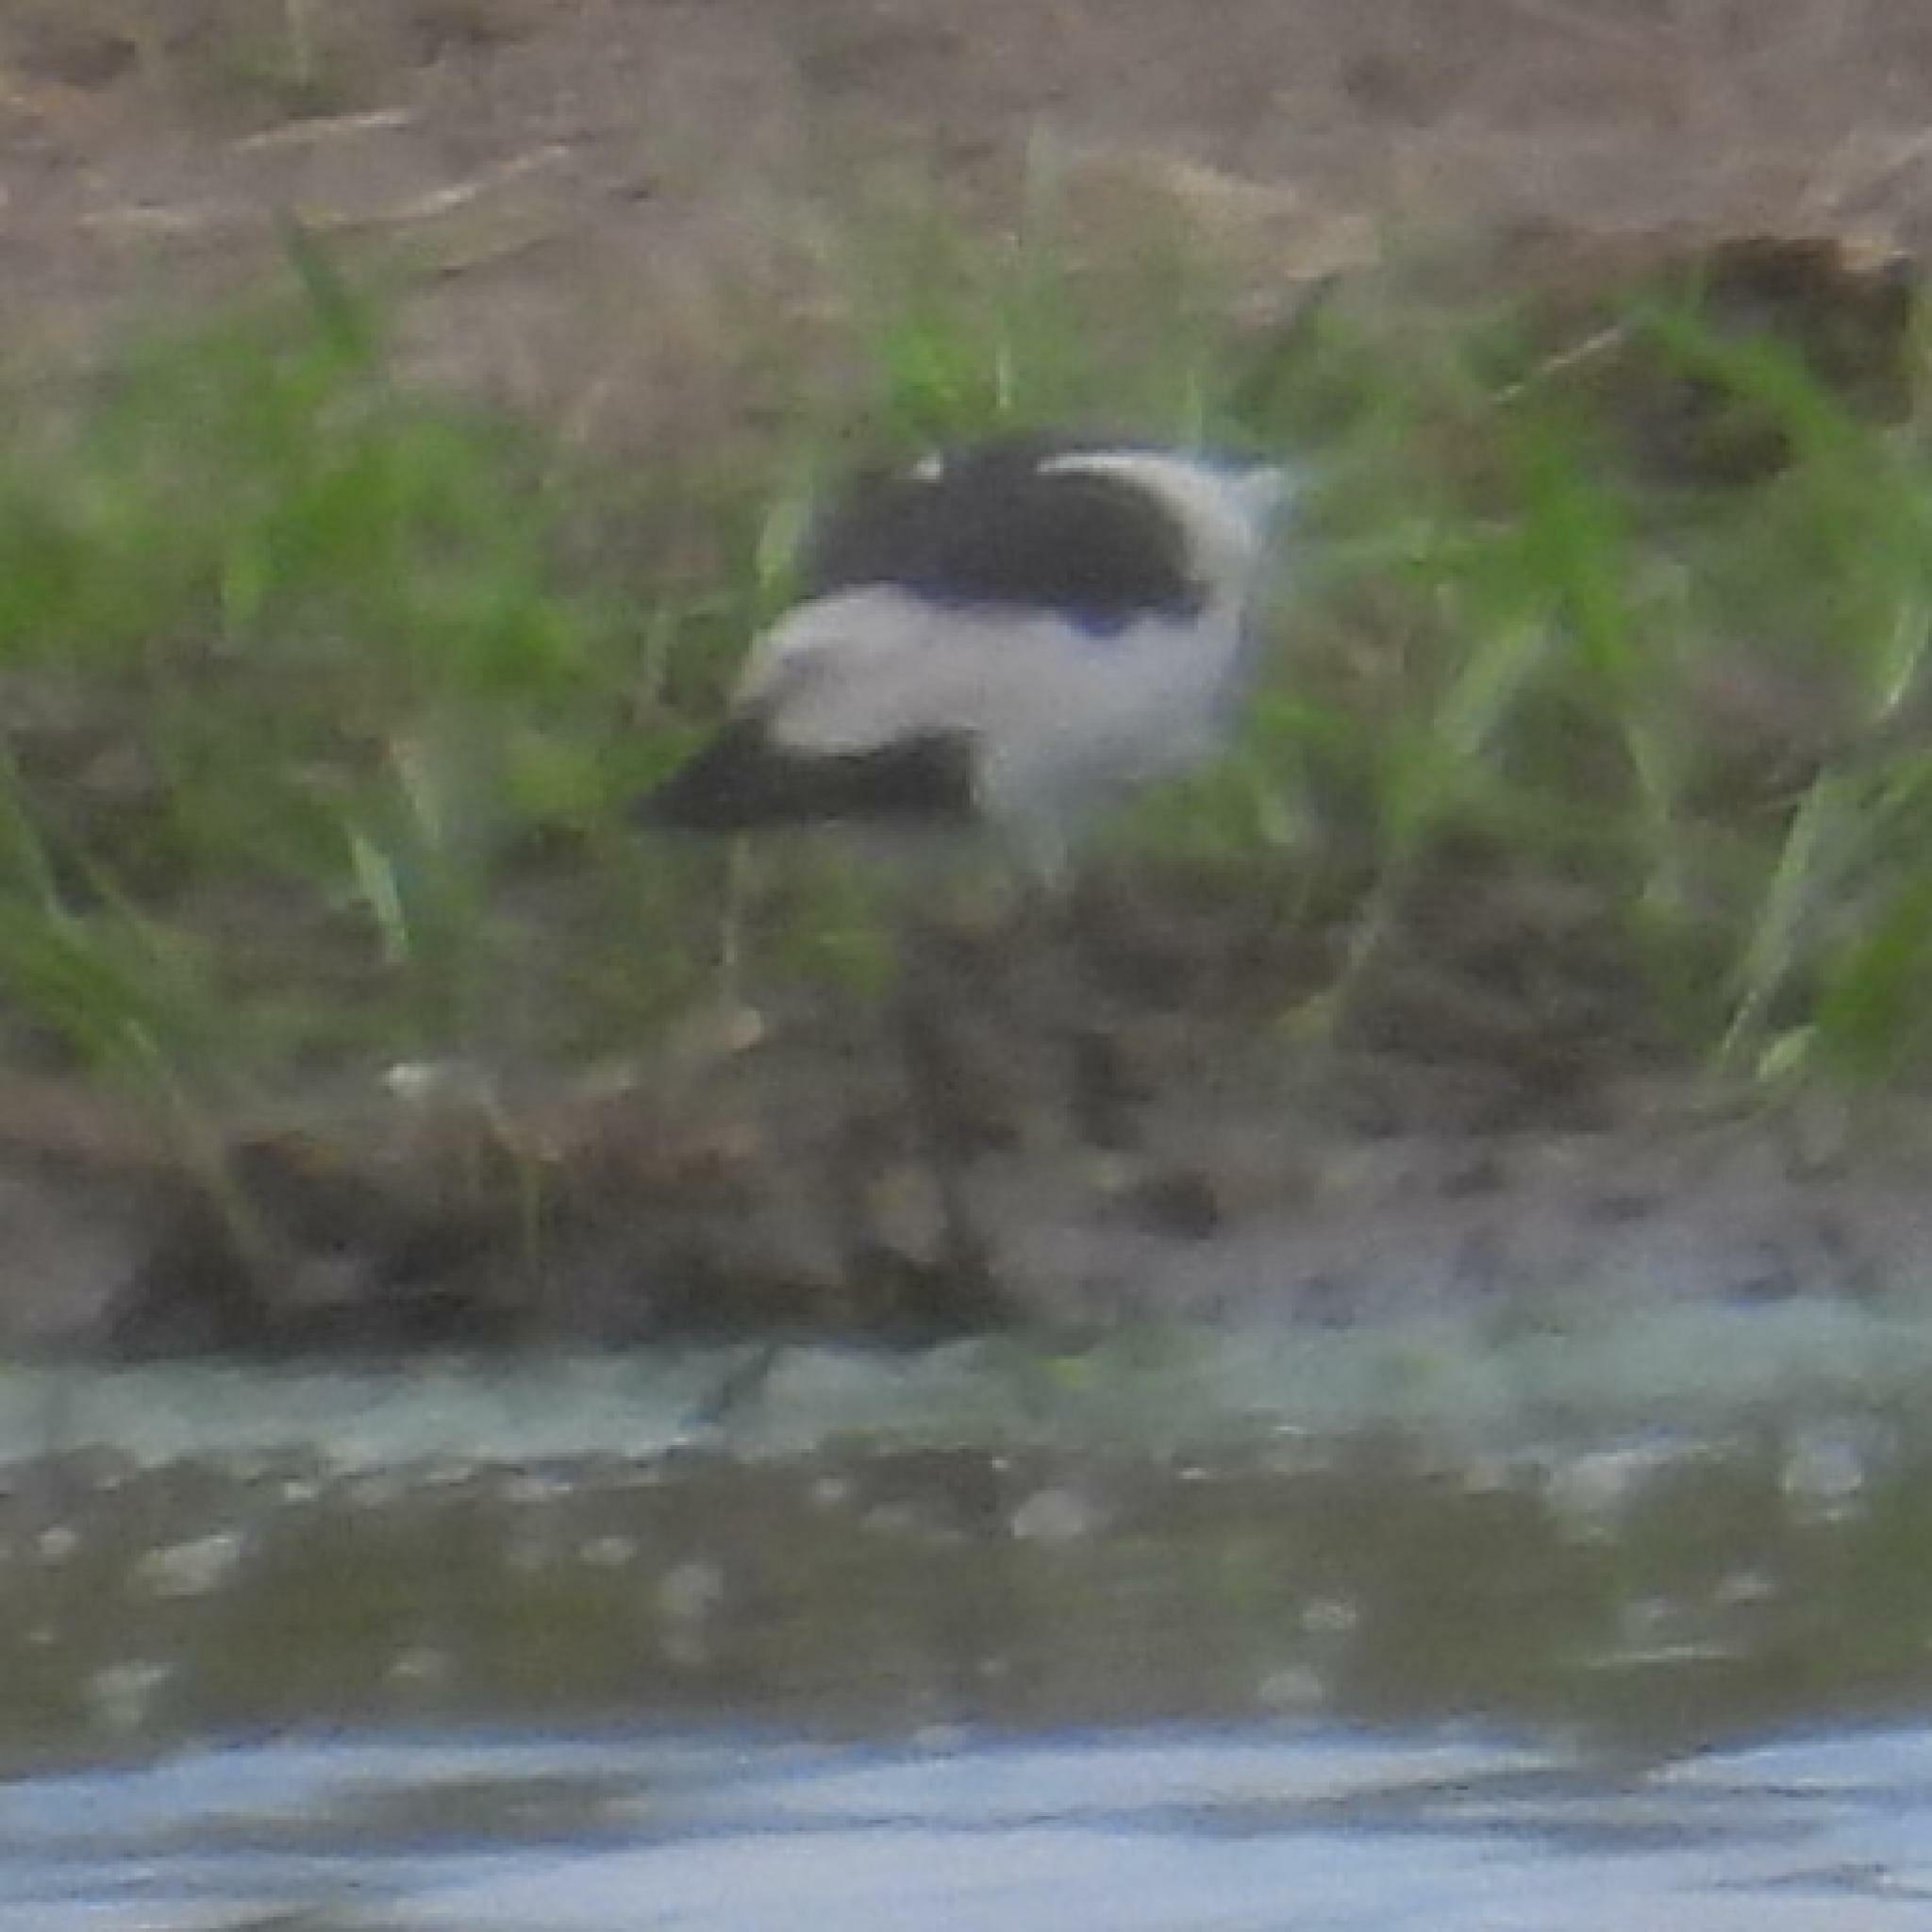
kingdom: Animalia
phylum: Chordata
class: Aves
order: Charadriiformes
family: Charadriidae
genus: Vanellus
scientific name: Vanellus armatus
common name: Blacksmith lapwing
